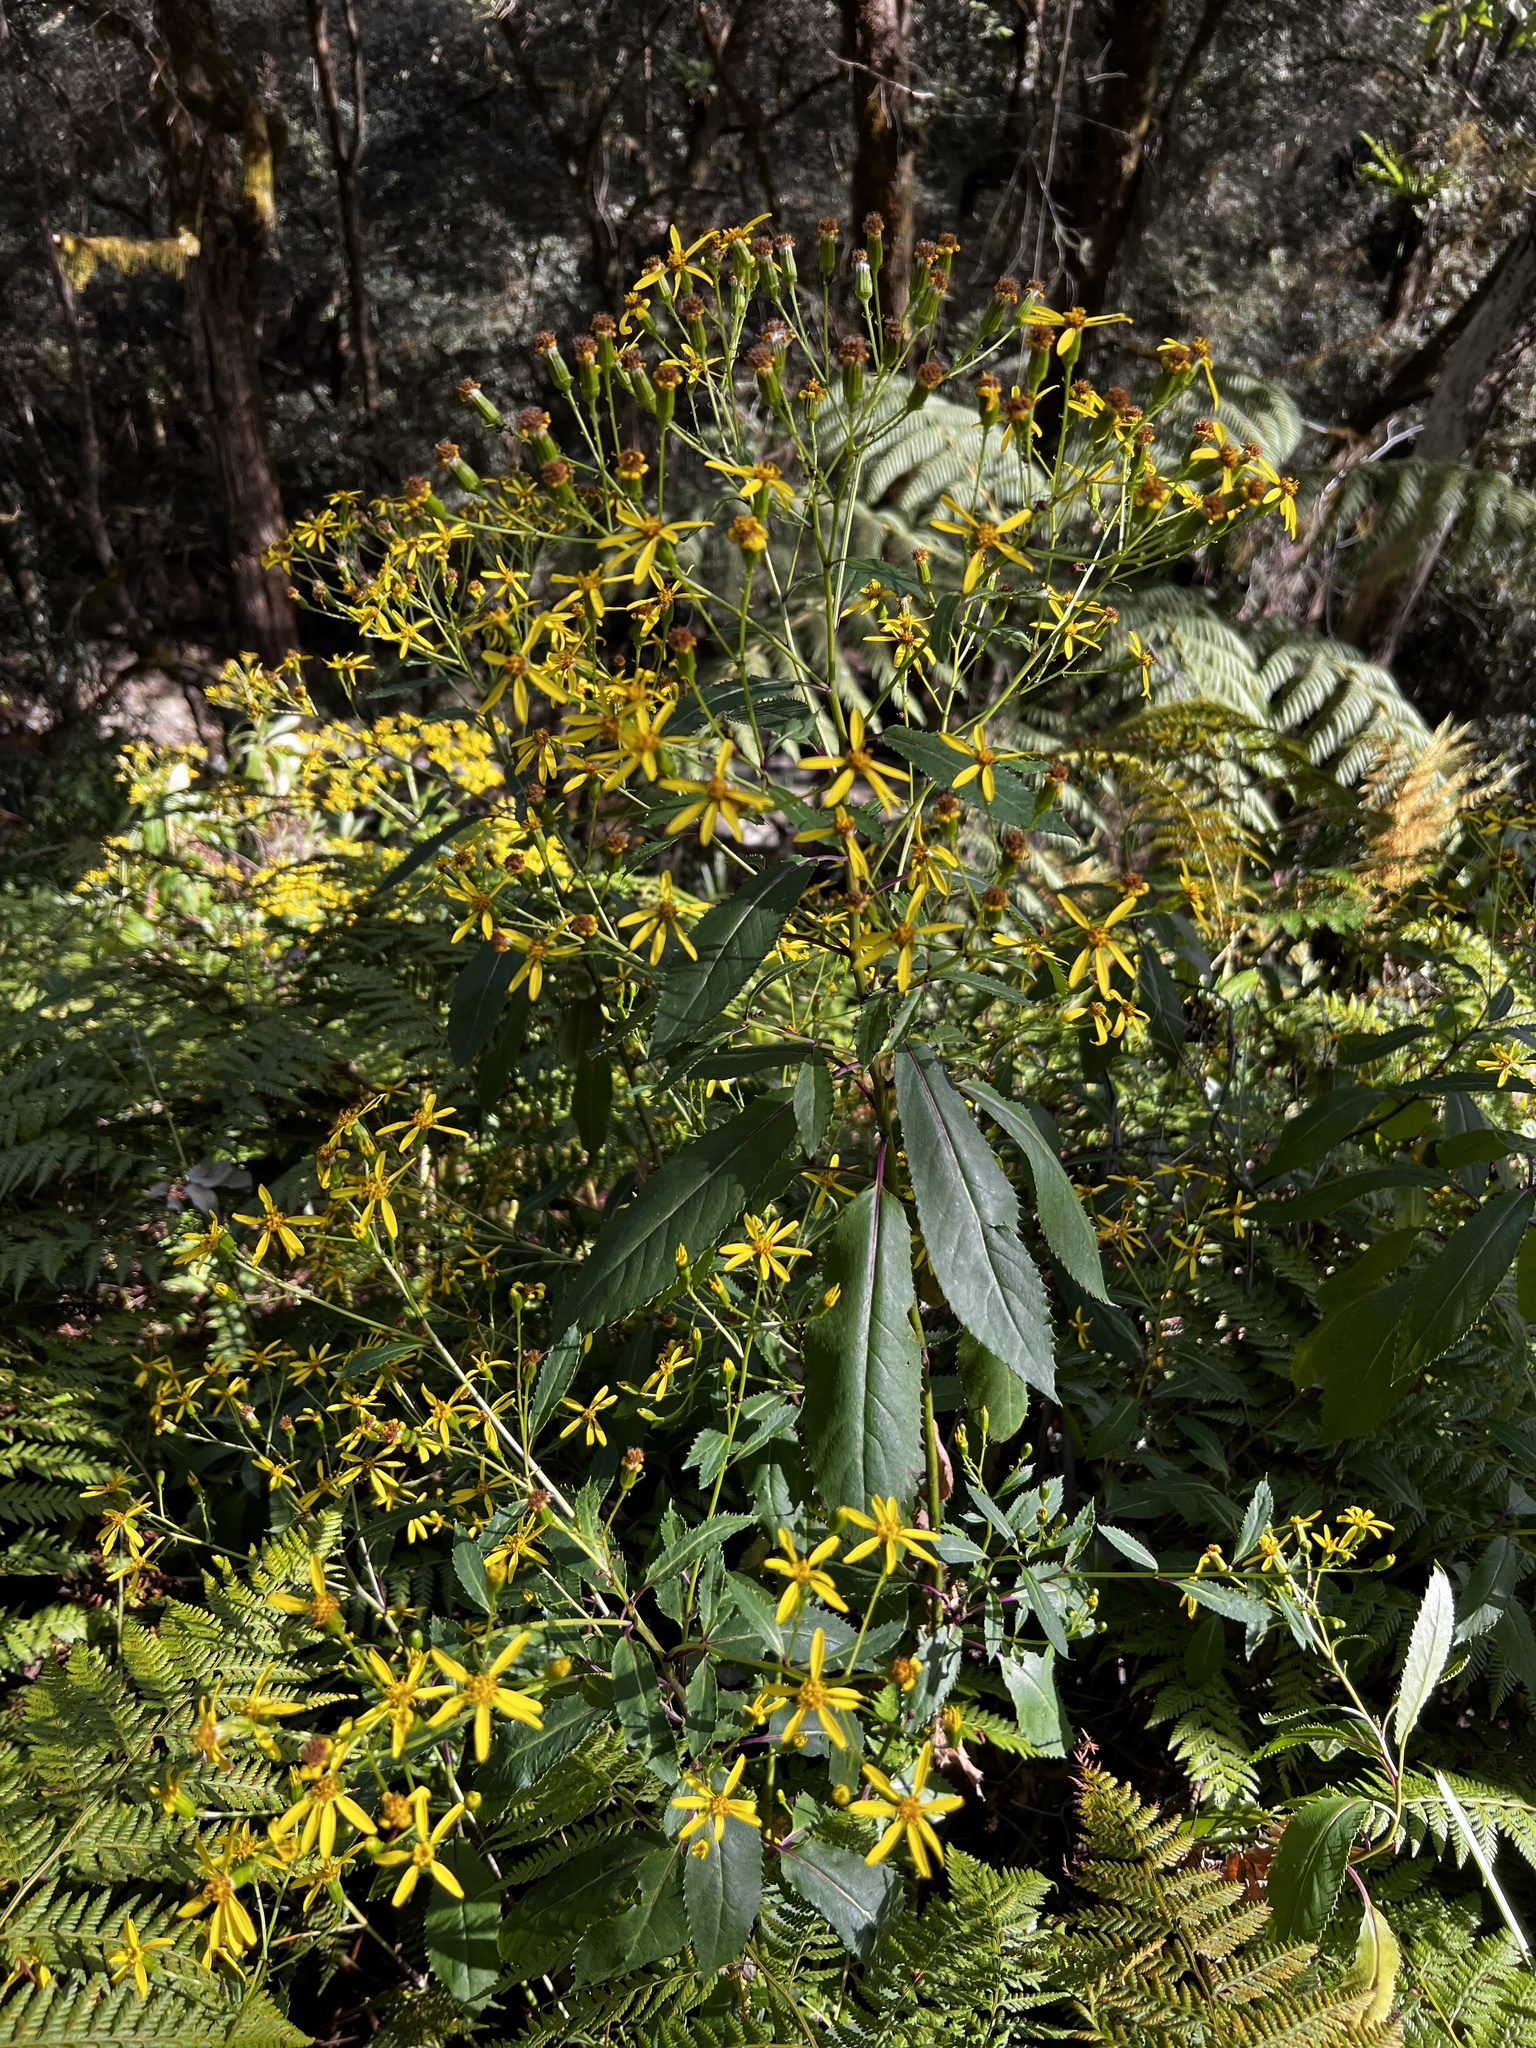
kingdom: Plantae
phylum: Tracheophyta
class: Magnoliopsida
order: Asterales
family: Asteraceae
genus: Lordhowea
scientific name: Lordhowea amygdalifolia
